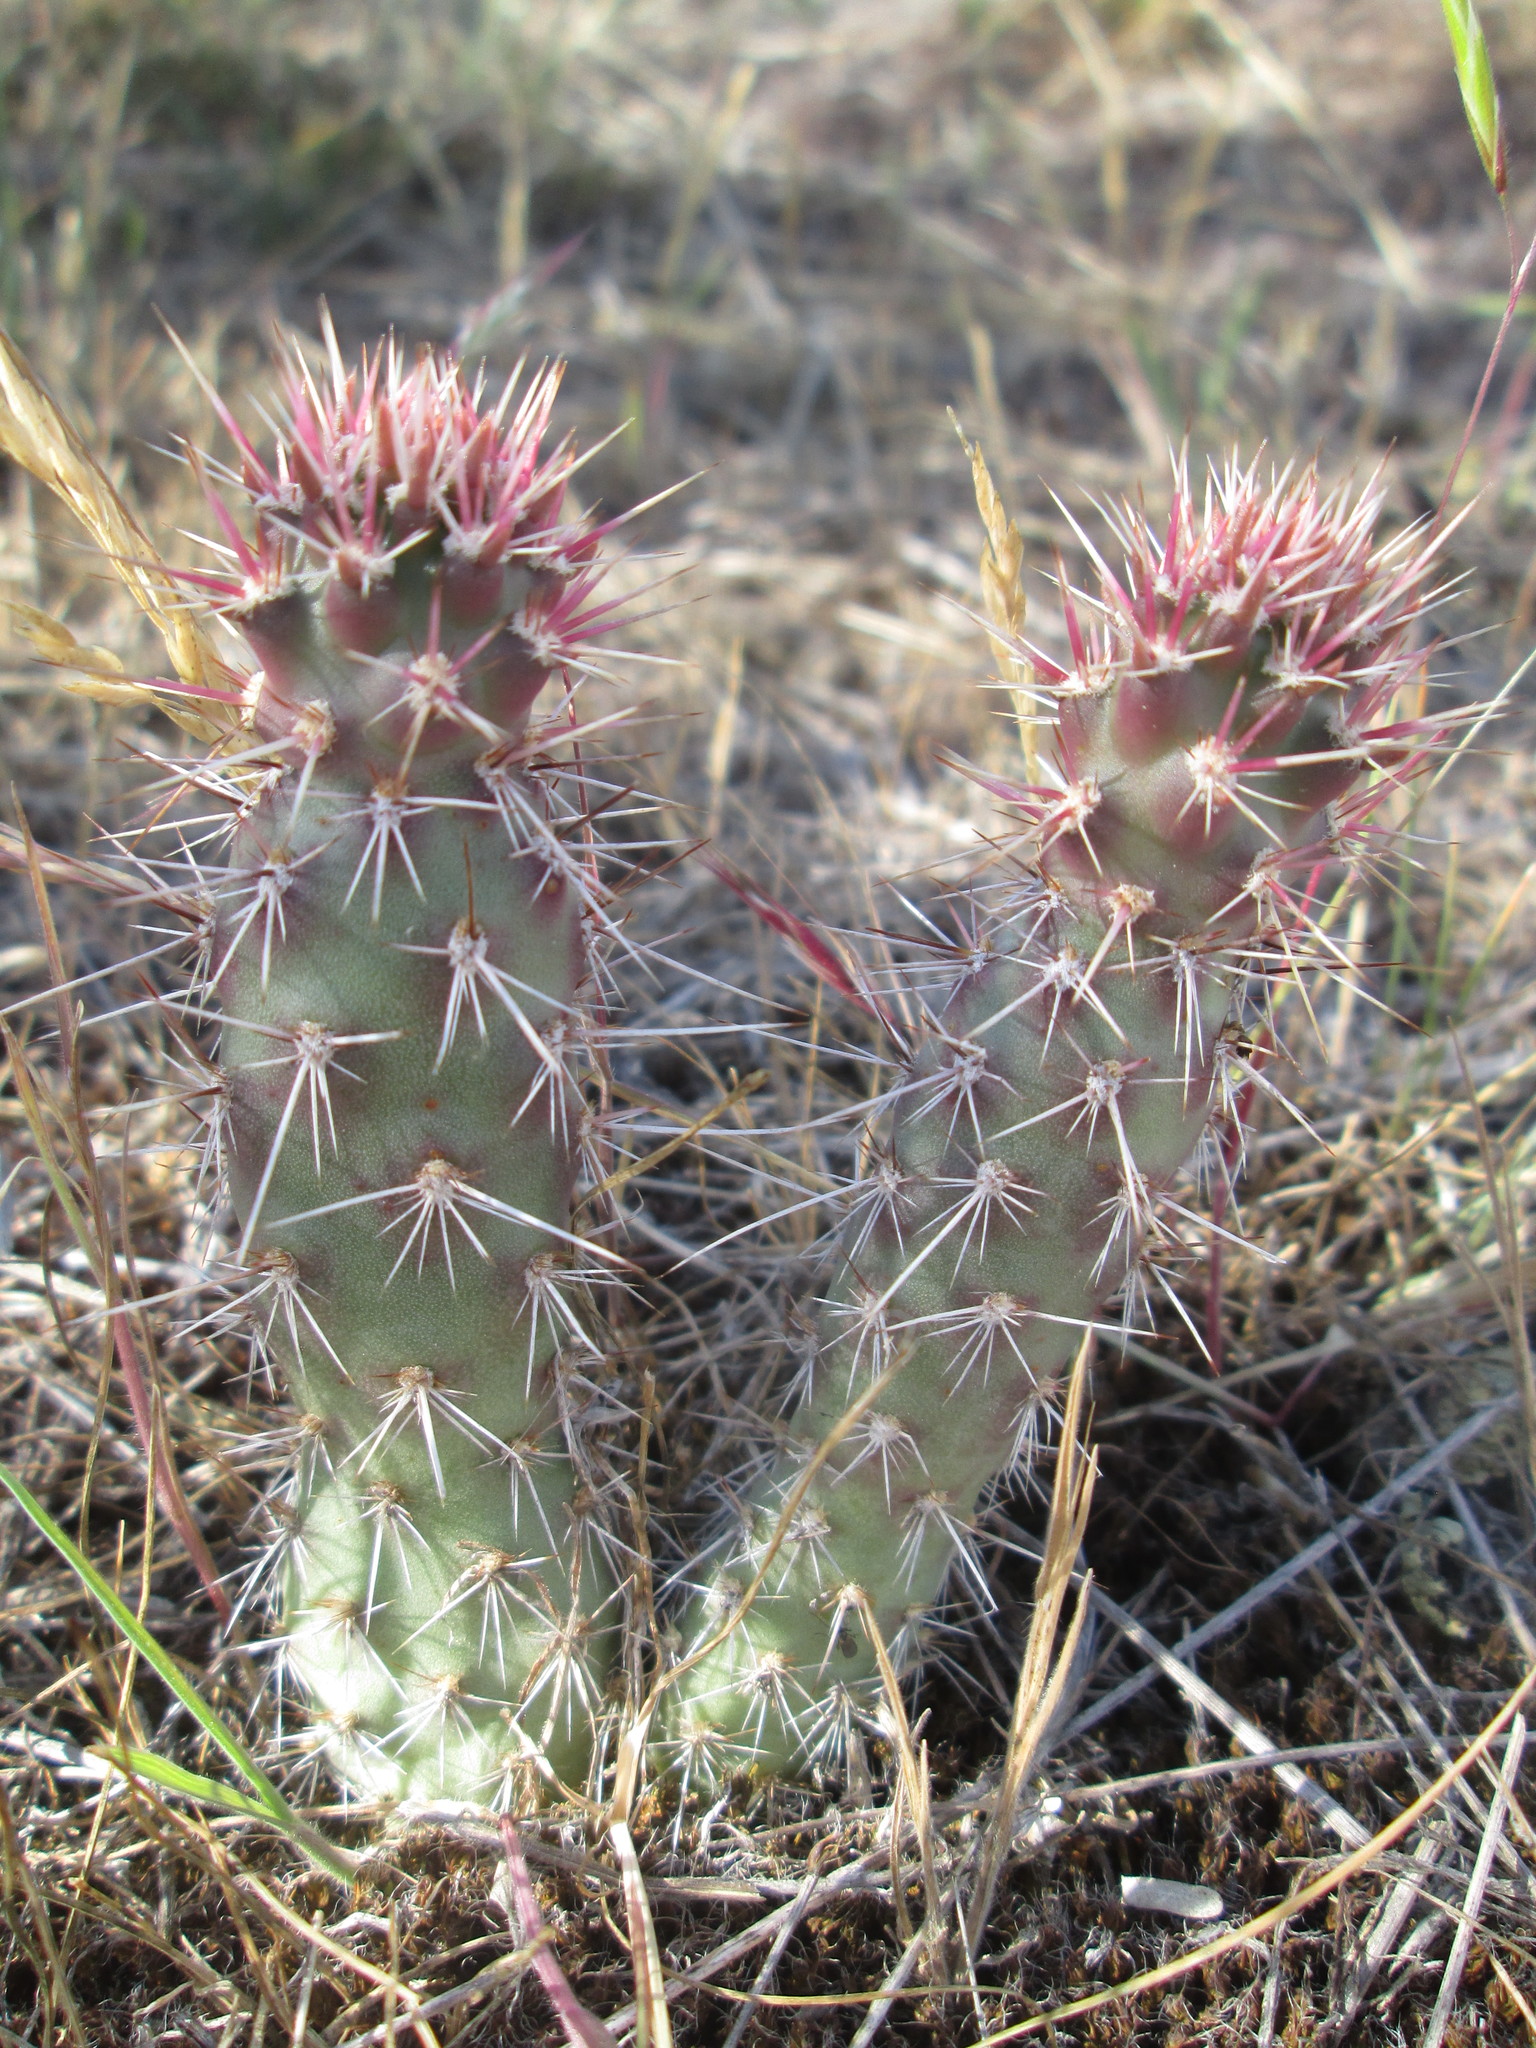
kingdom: Plantae
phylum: Tracheophyta
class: Magnoliopsida
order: Caryophyllales
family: Cactaceae
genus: Opuntia
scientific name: Opuntia polyacantha
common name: Plains prickly-pear
